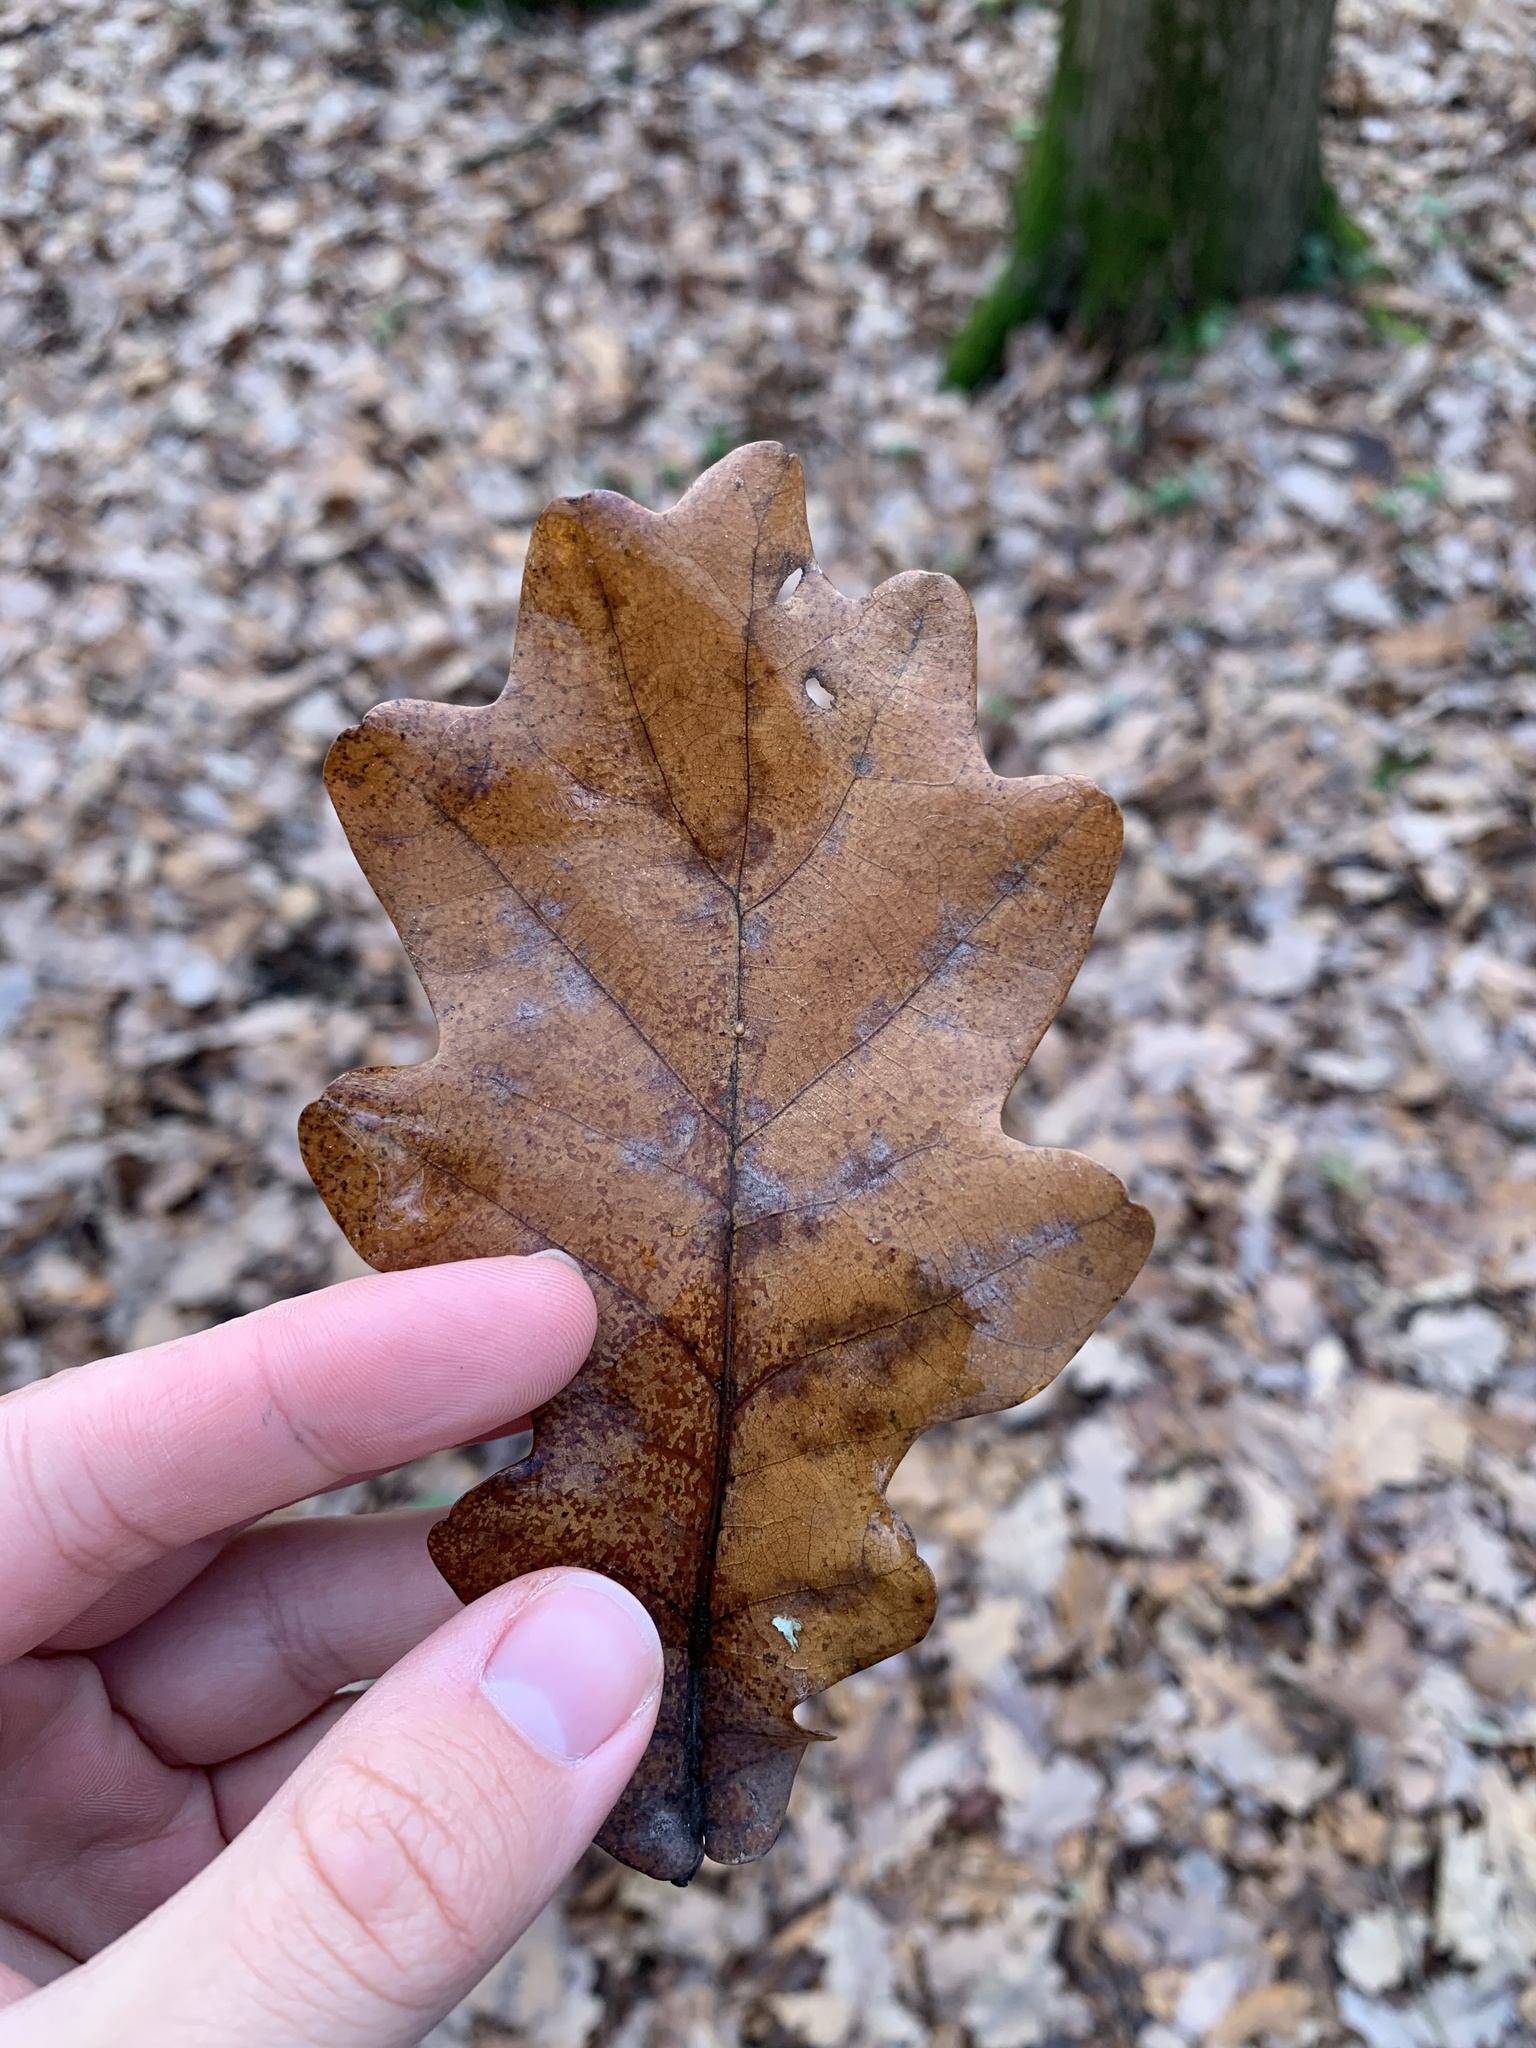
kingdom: Plantae
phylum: Tracheophyta
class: Magnoliopsida
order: Fagales
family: Fagaceae
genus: Quercus
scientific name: Quercus robur
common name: Pedunculate oak
